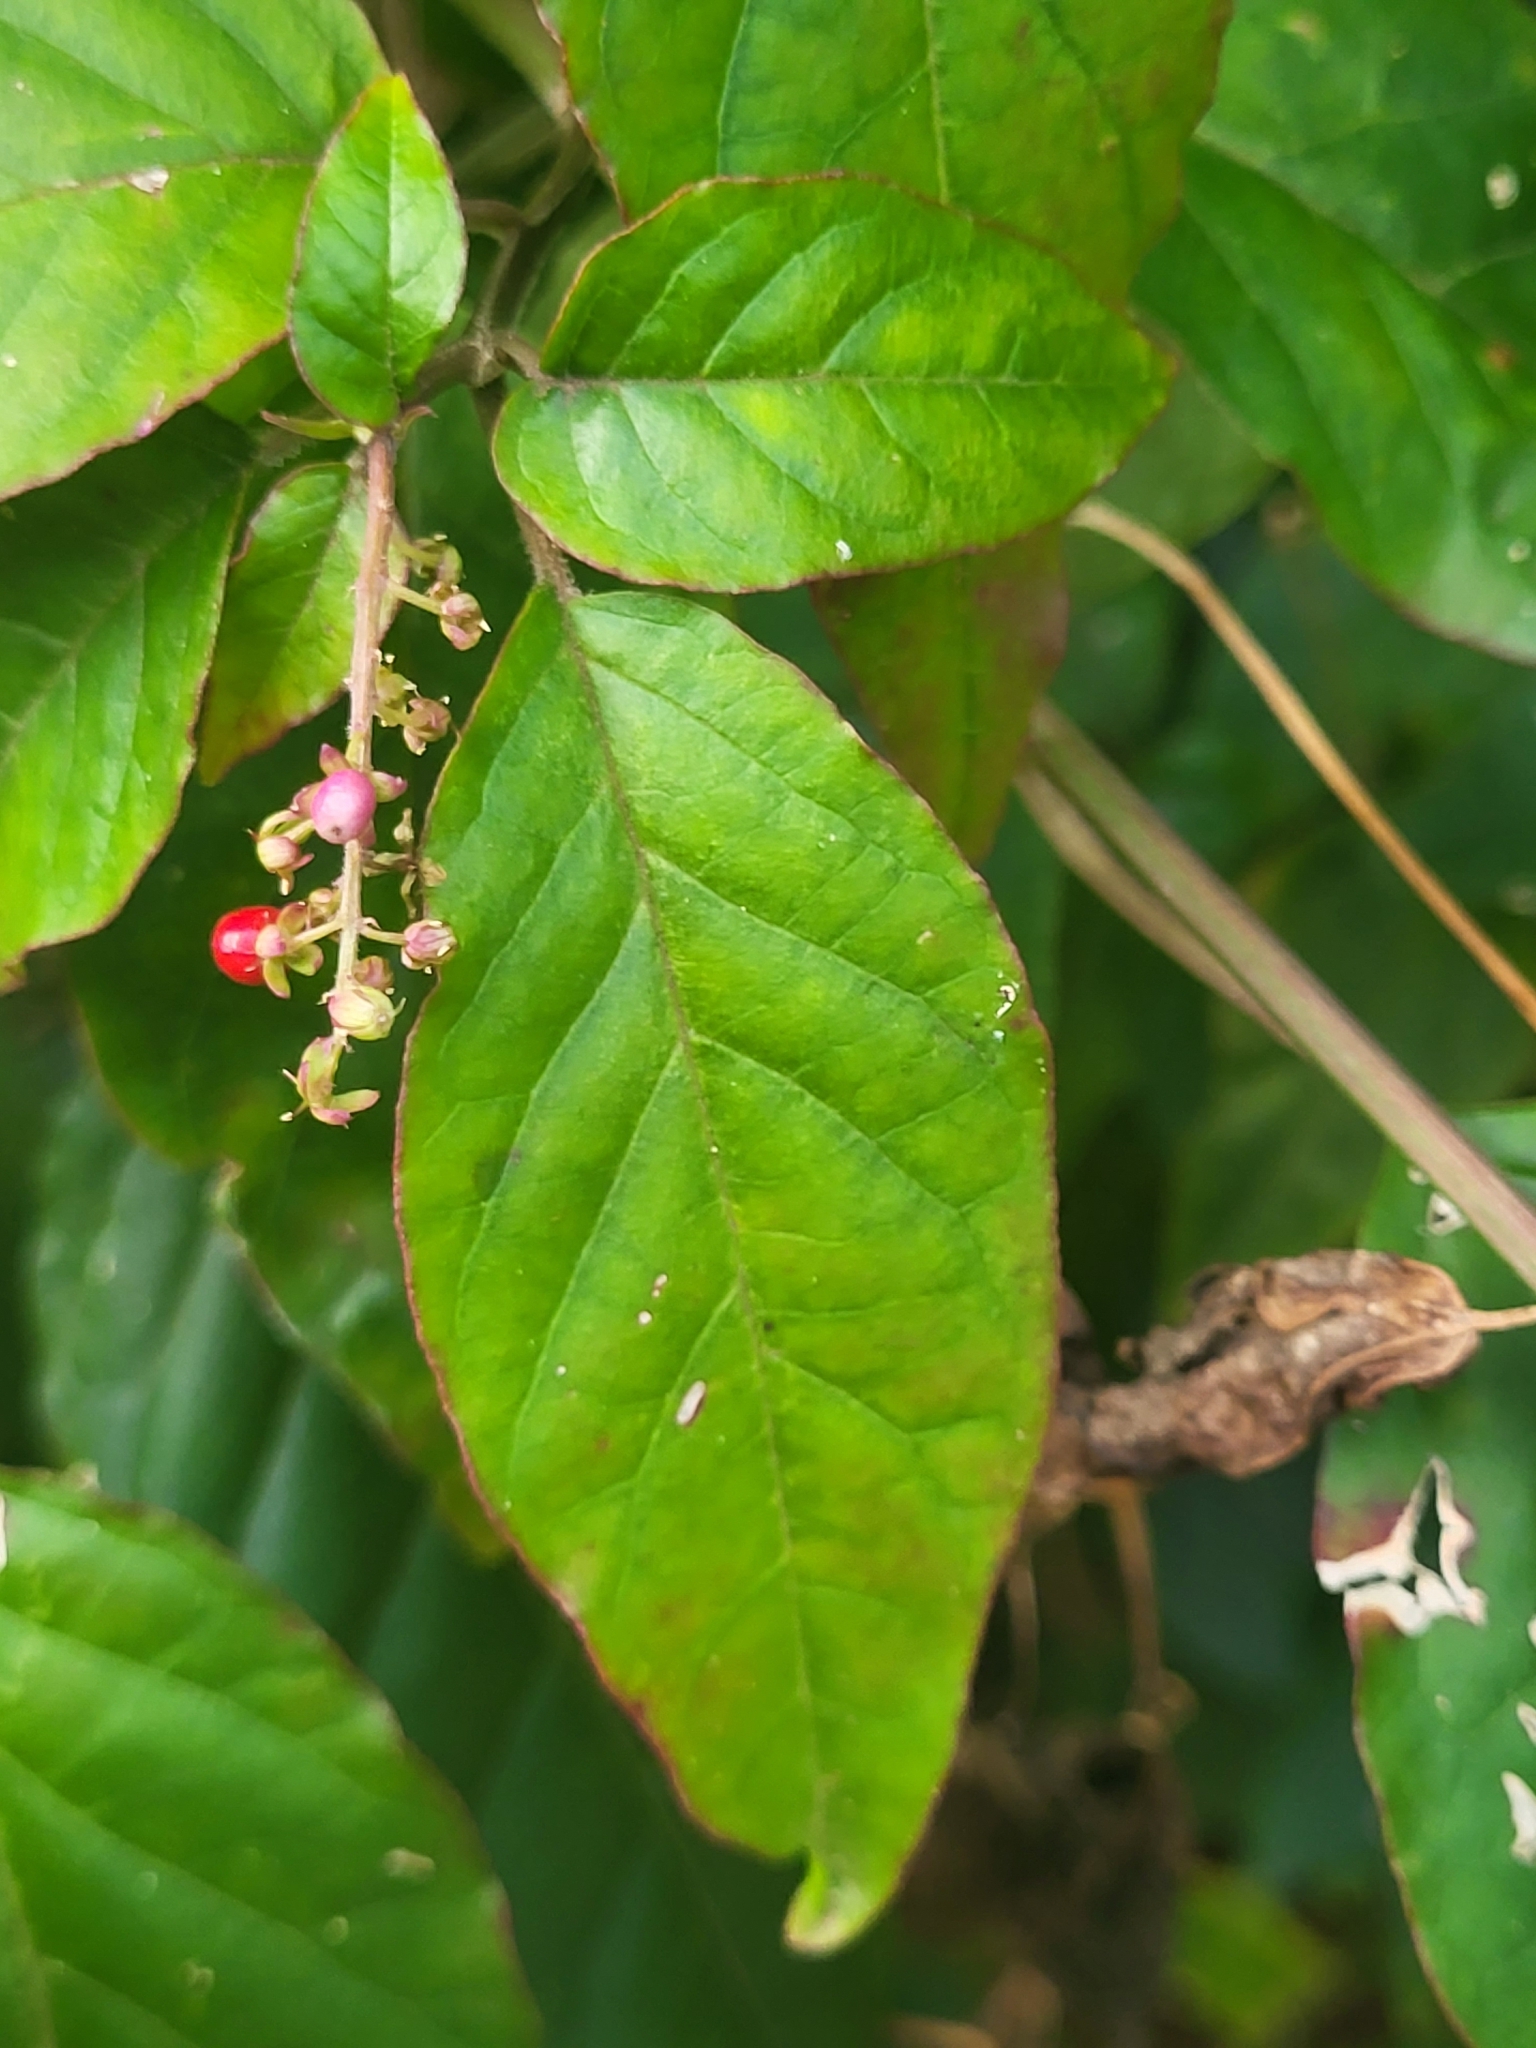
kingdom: Plantae
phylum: Tracheophyta
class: Magnoliopsida
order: Caryophyllales
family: Phytolaccaceae
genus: Rivina
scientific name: Rivina humilis
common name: Rougeplant
